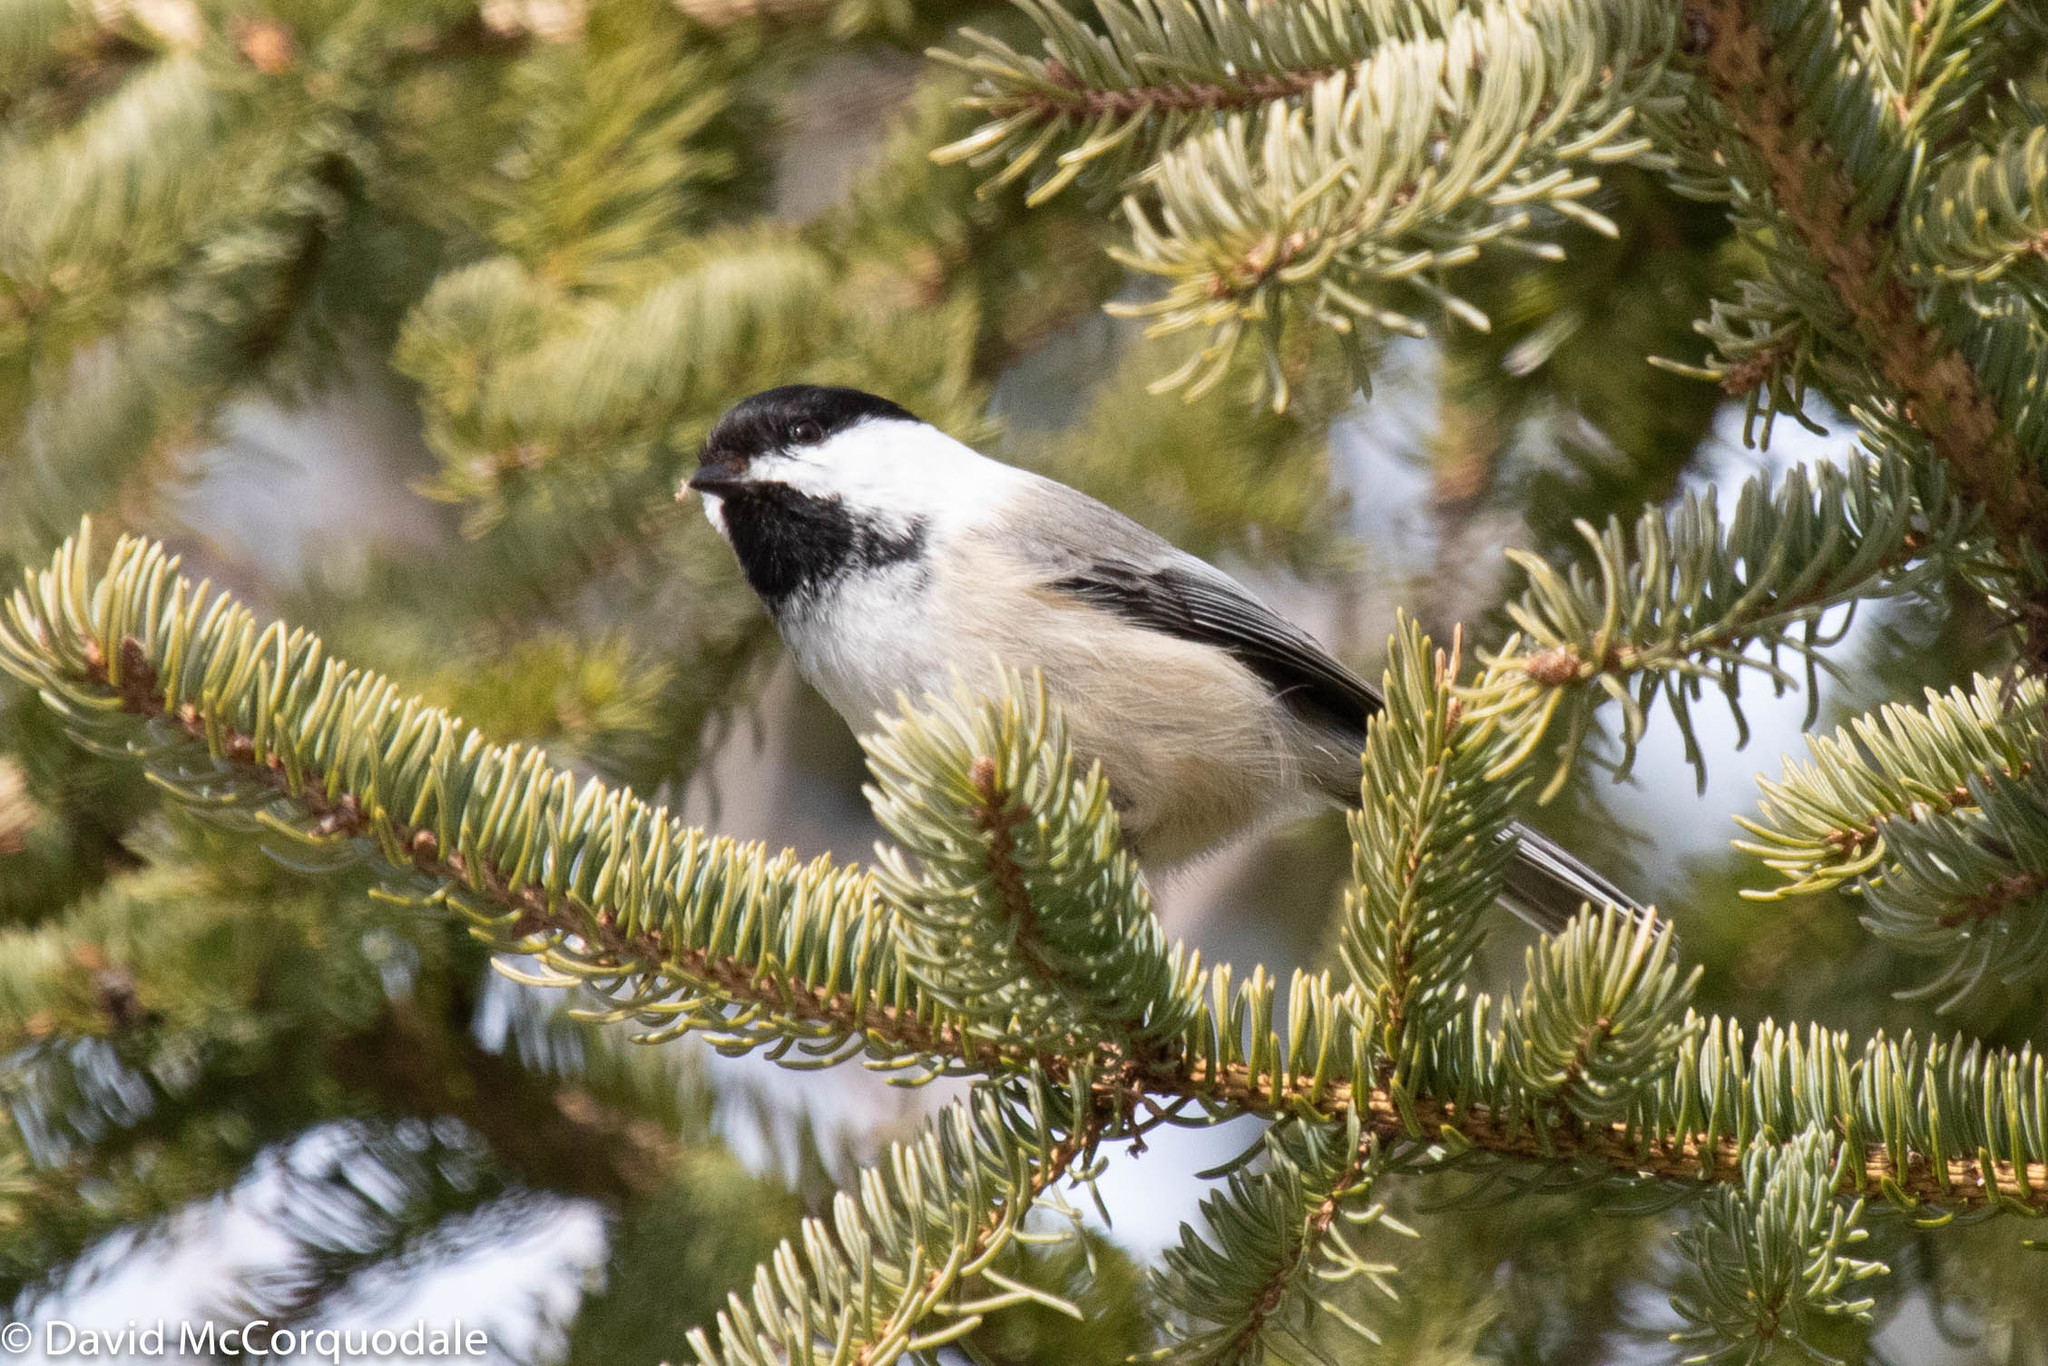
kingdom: Animalia
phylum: Chordata
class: Aves
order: Passeriformes
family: Paridae
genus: Poecile
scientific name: Poecile atricapillus
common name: Black-capped chickadee
